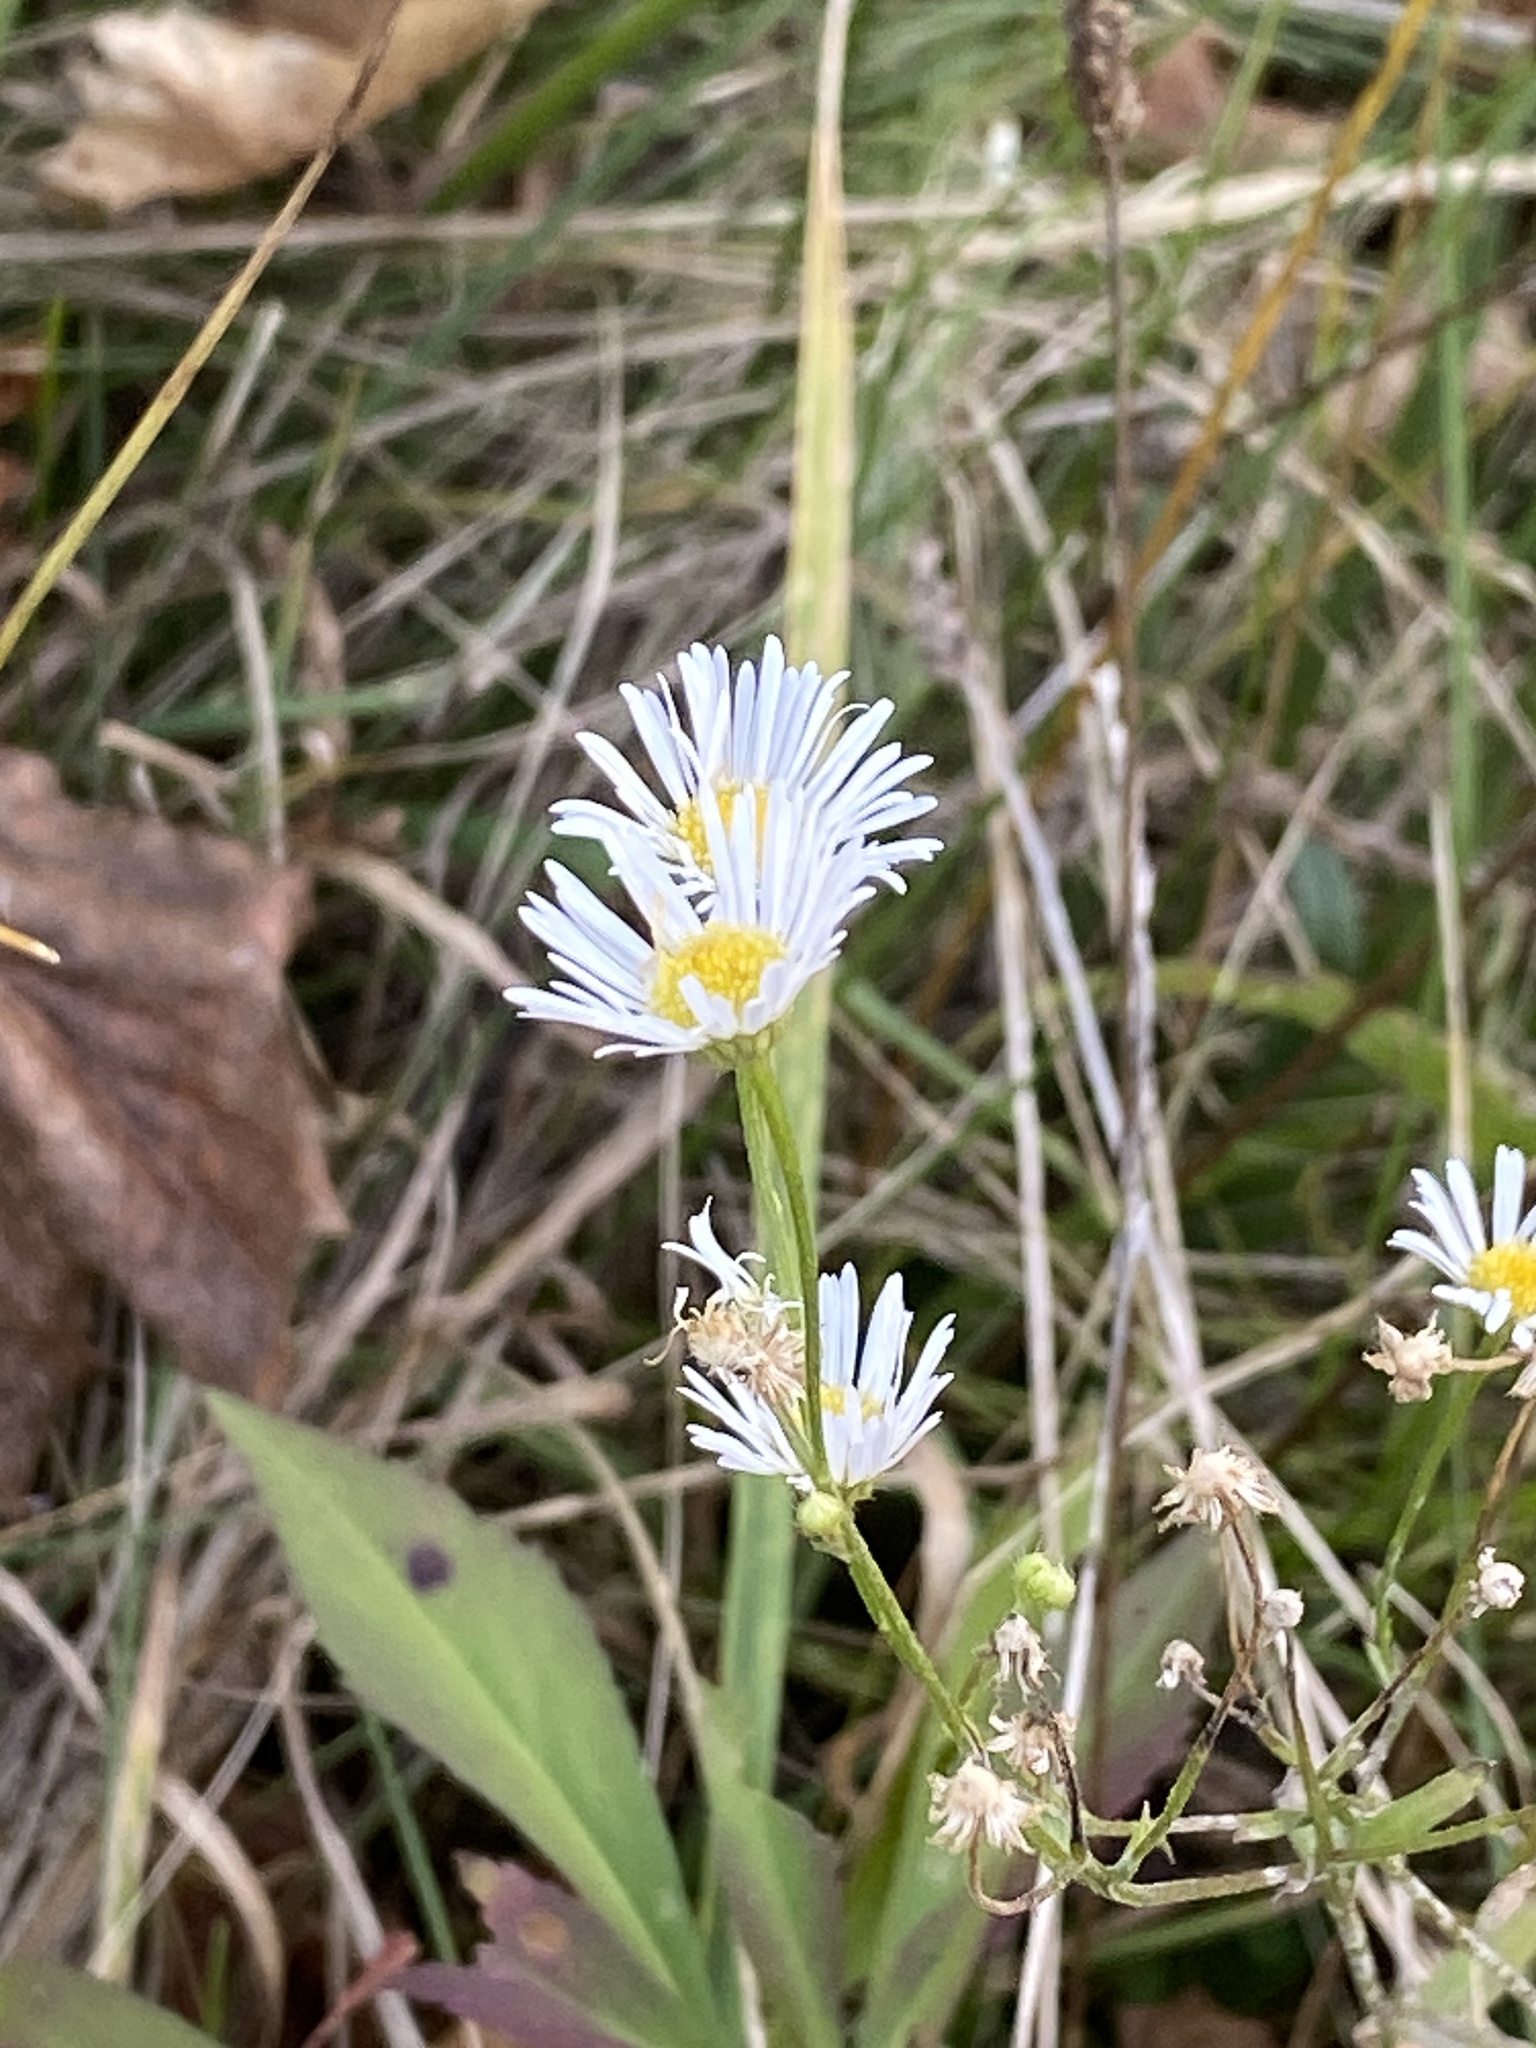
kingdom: Plantae
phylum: Tracheophyta
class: Magnoliopsida
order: Asterales
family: Asteraceae
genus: Erigeron
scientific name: Erigeron strigosus
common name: Common eastern fleabane
